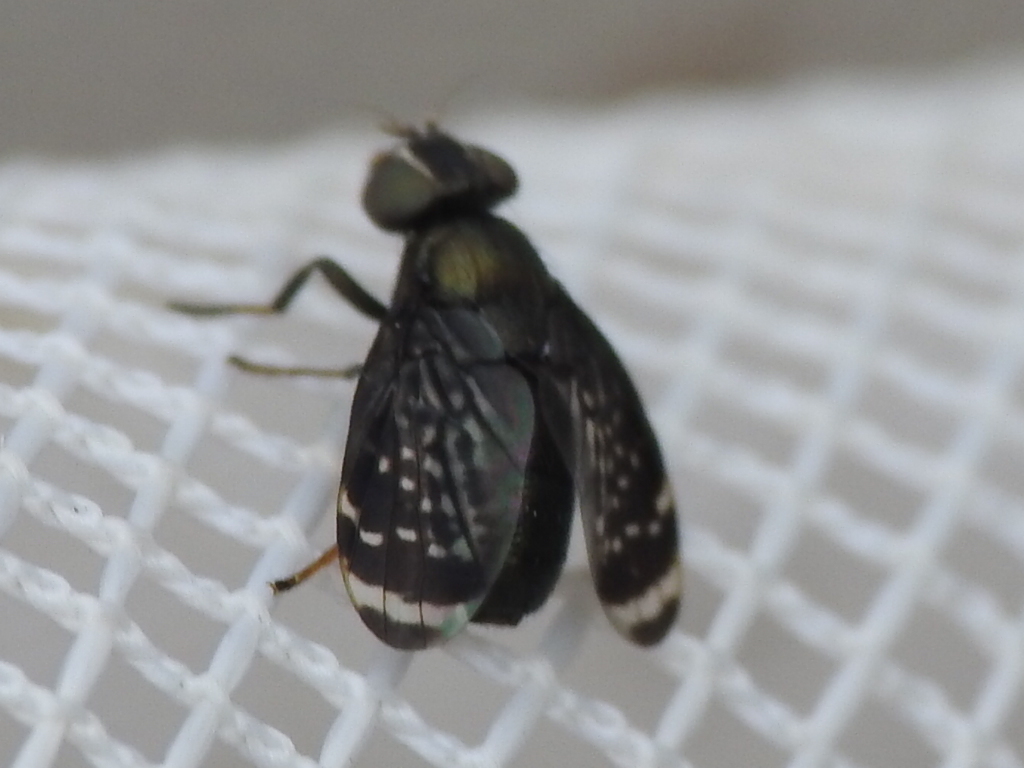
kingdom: Animalia
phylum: Arthropoda
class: Insecta
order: Diptera
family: Platystomatidae
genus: Amphicnephes
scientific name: Amphicnephes pullus
